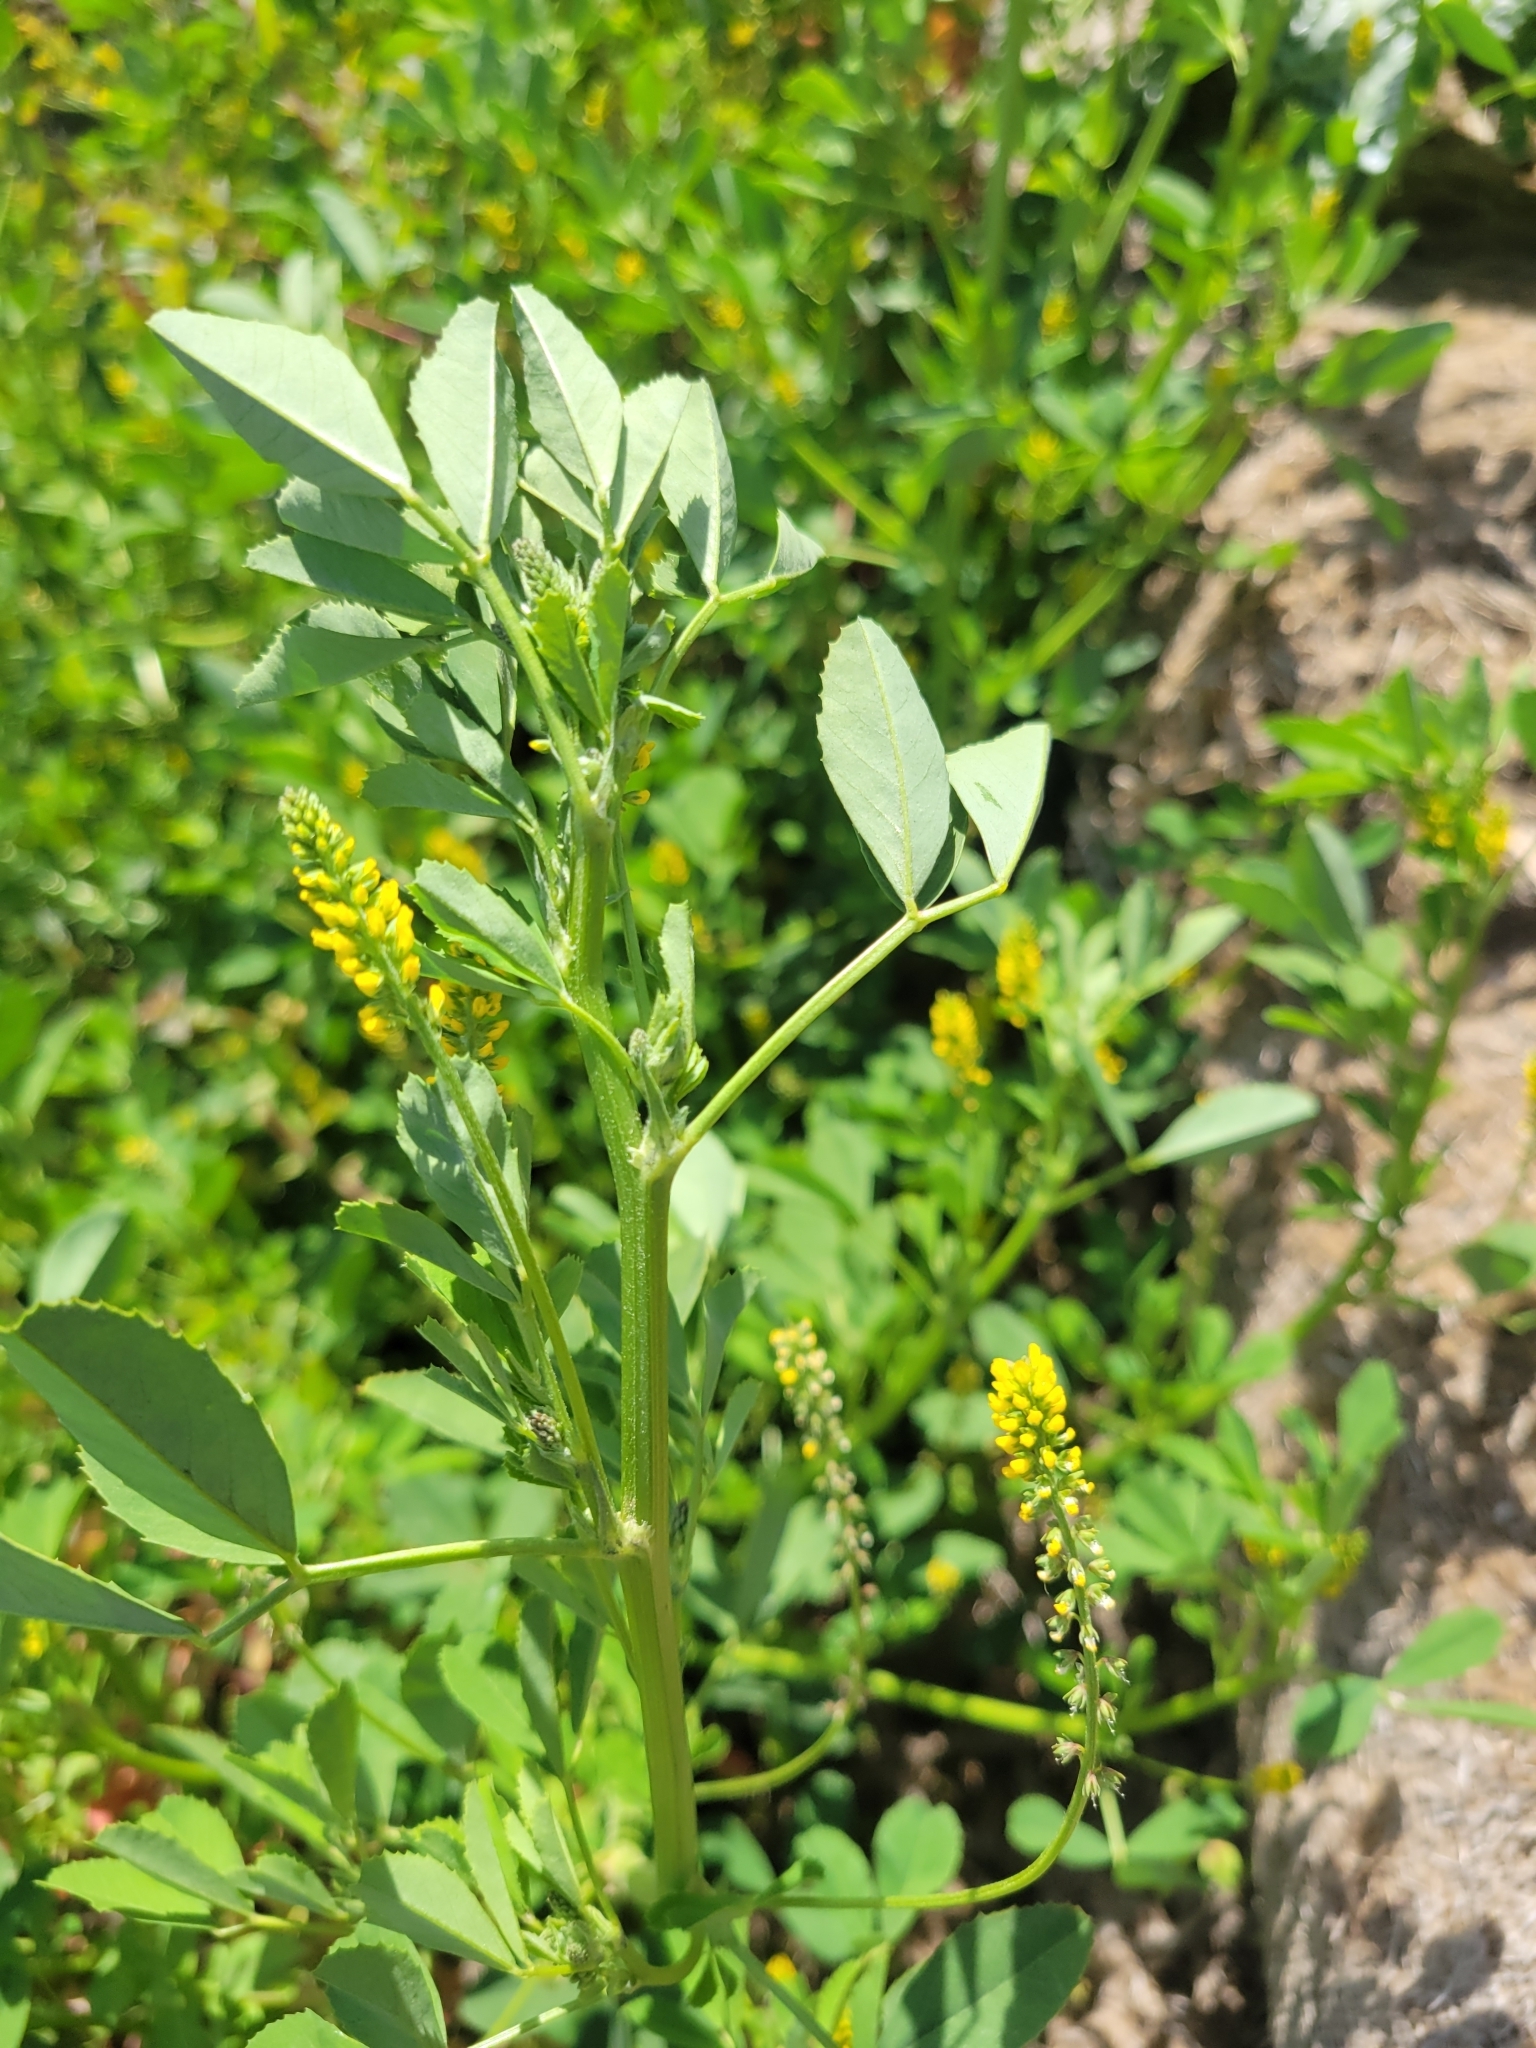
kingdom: Plantae
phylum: Tracheophyta
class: Magnoliopsida
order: Fabales
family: Fabaceae
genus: Melilotus
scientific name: Melilotus indicus
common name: Small melilot
